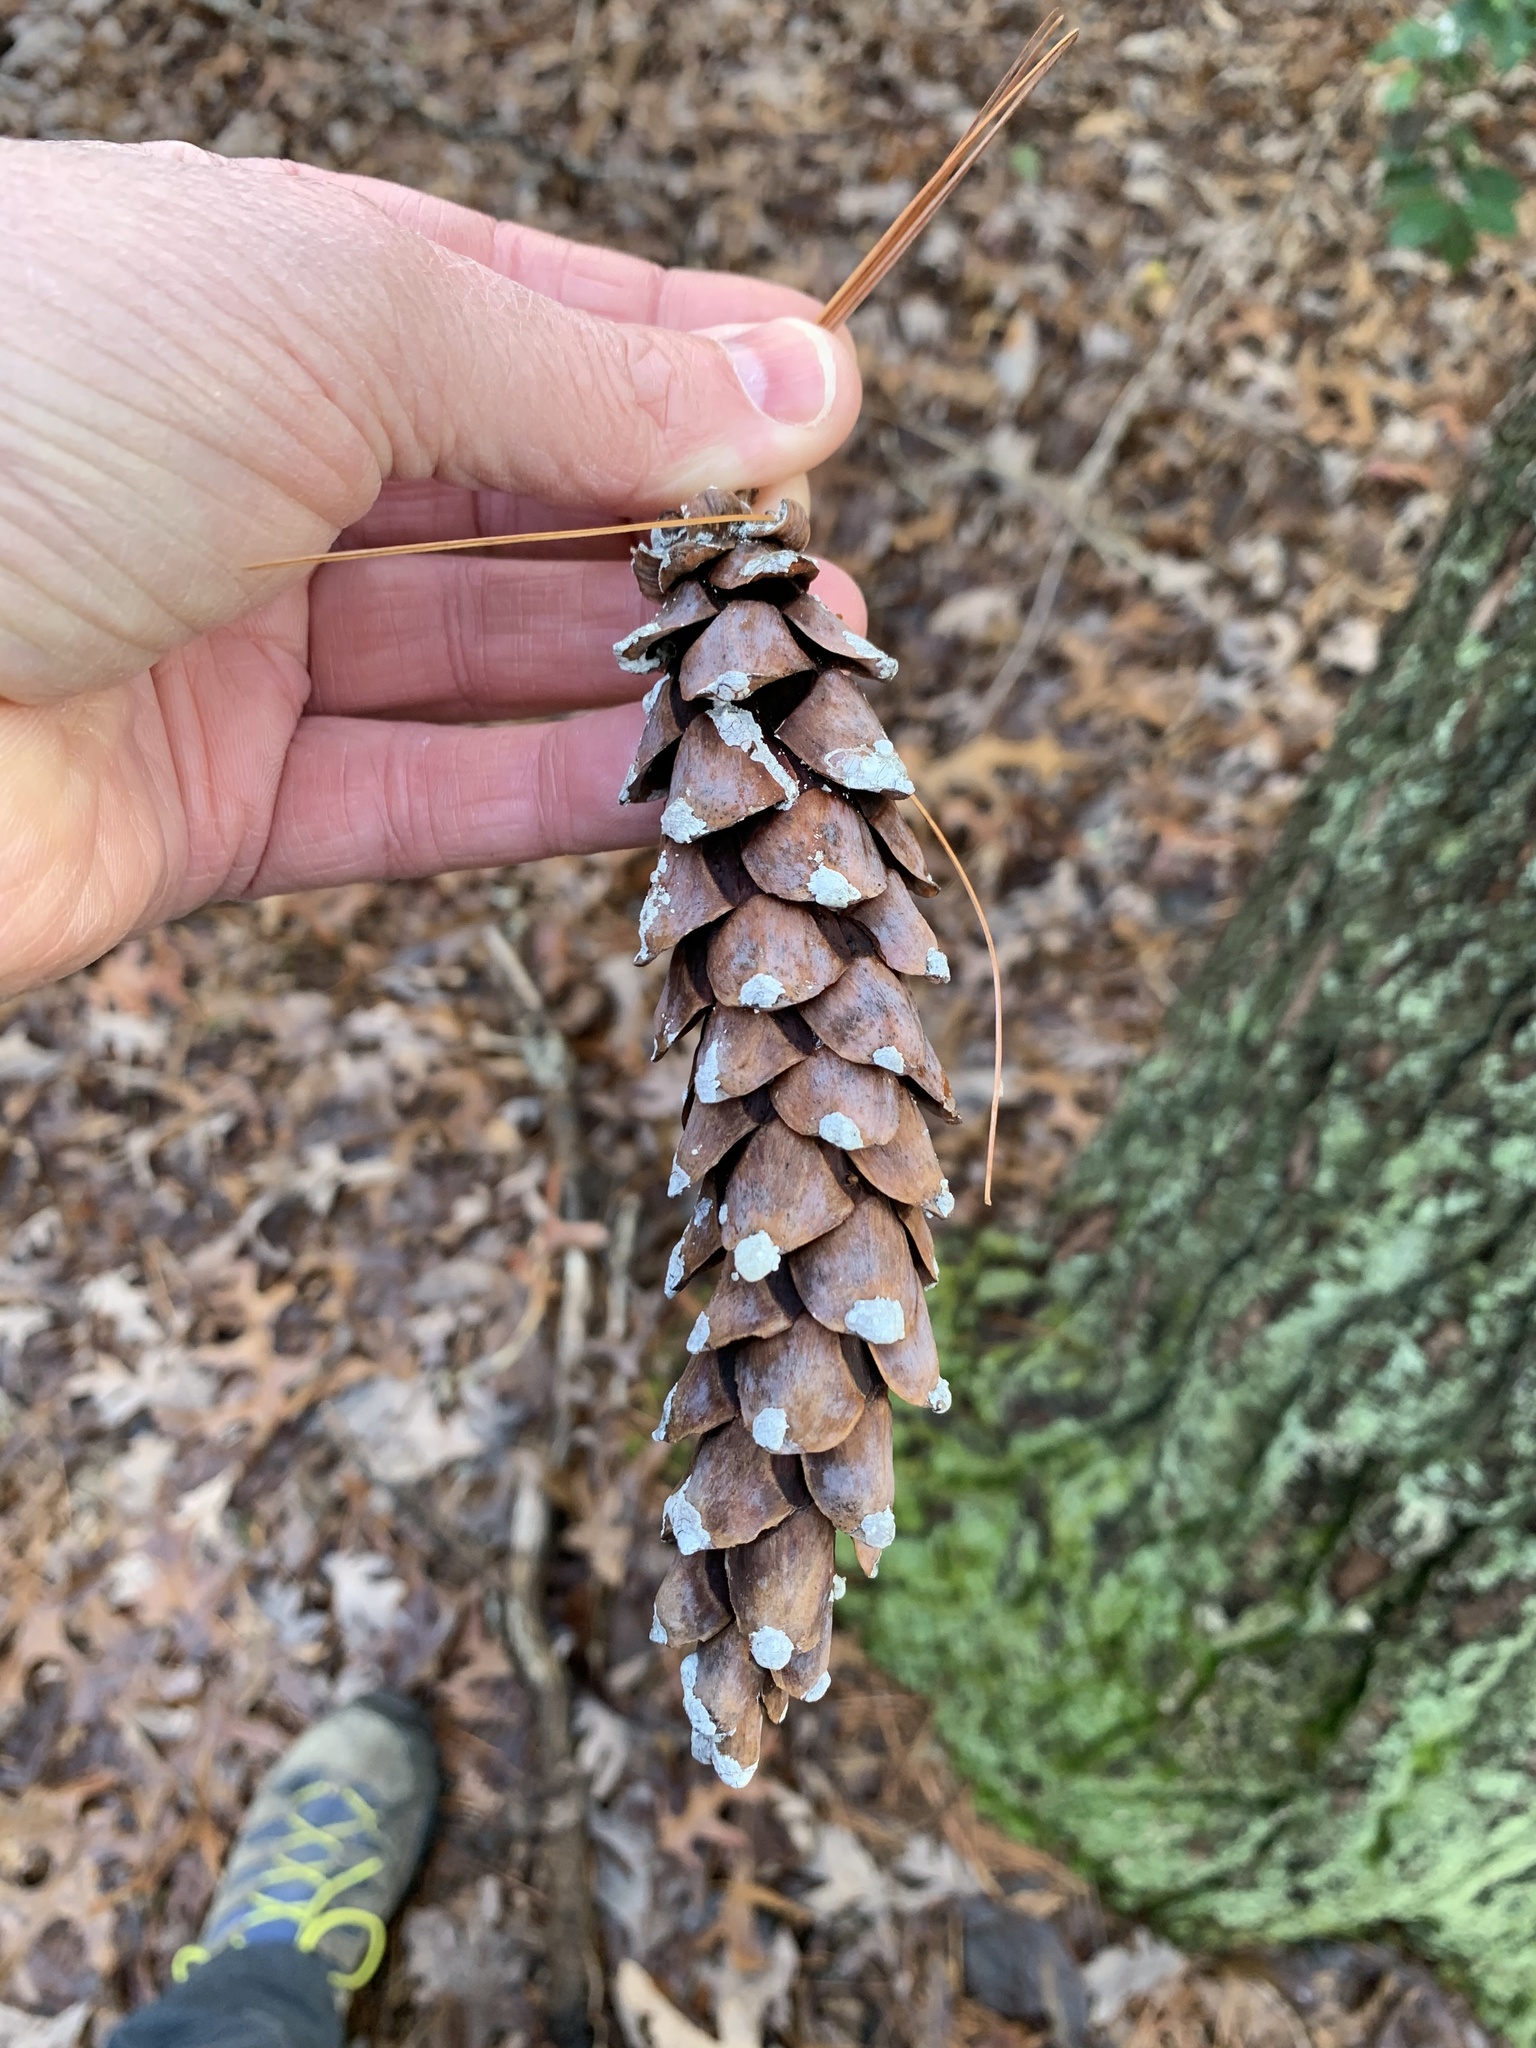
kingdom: Plantae
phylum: Tracheophyta
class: Pinopsida
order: Pinales
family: Pinaceae
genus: Pinus
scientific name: Pinus strobus
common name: Weymouth pine
